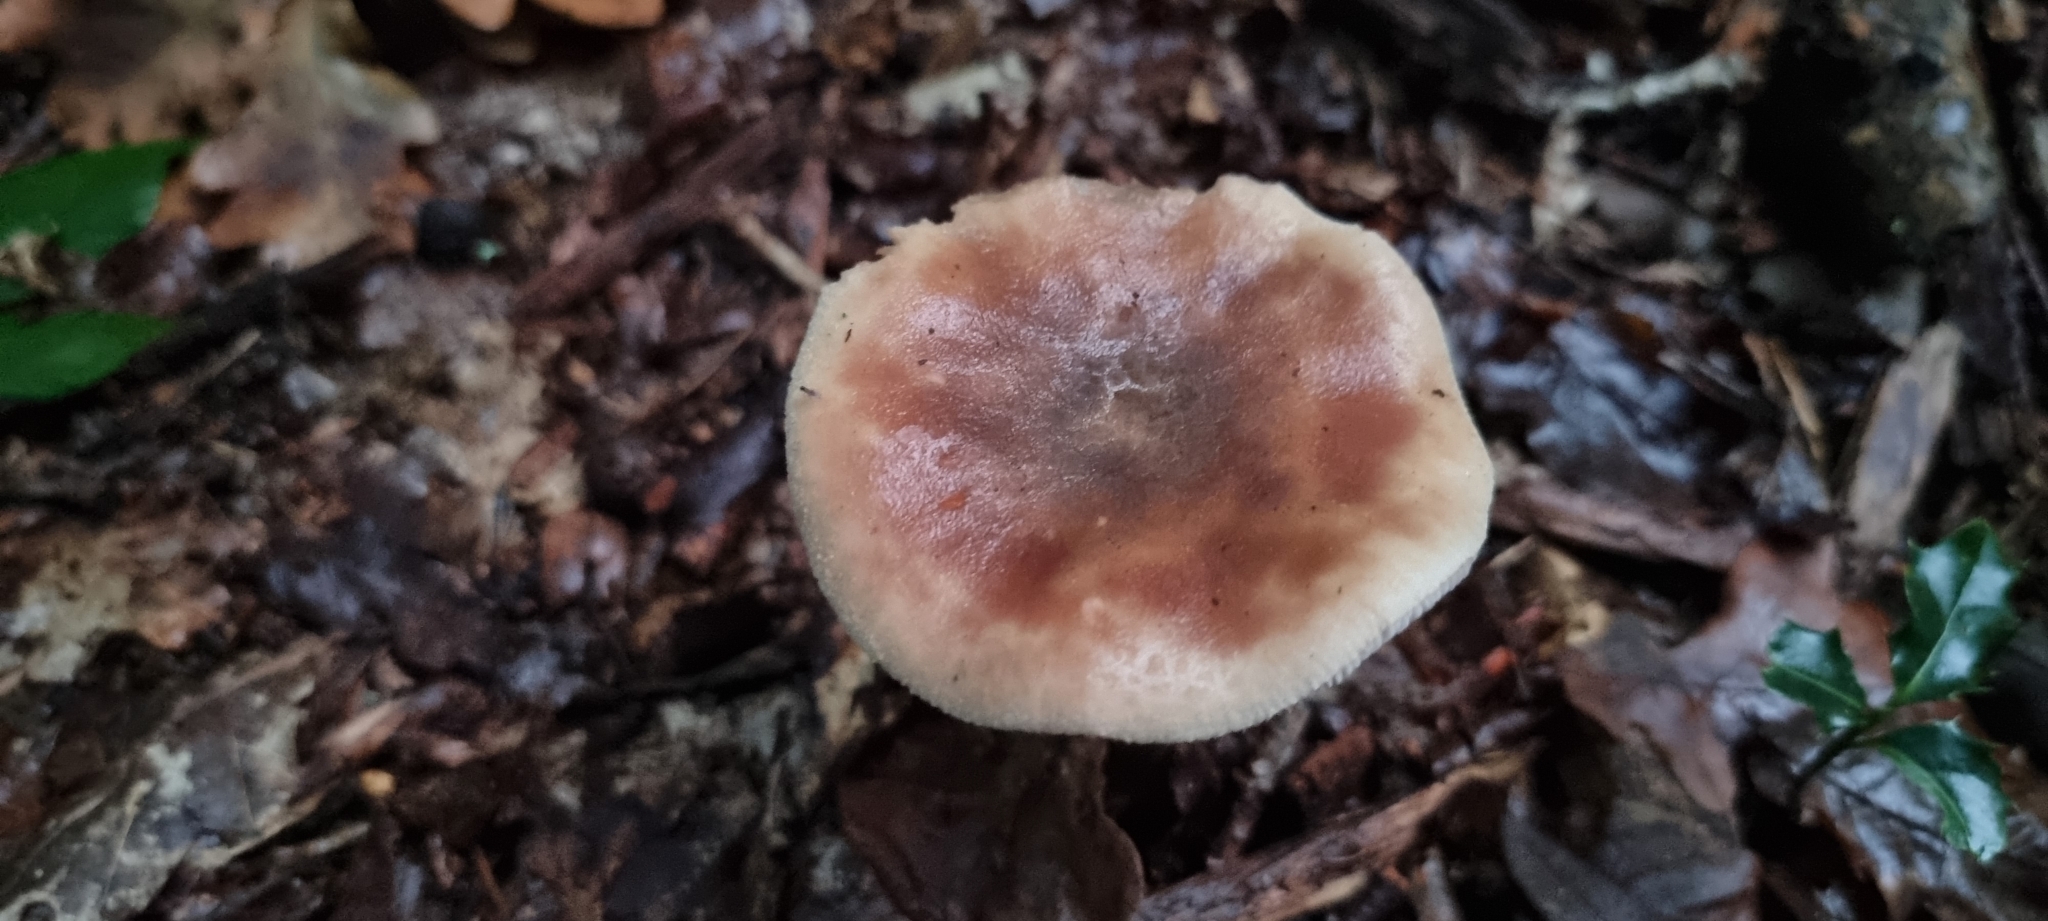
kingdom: Fungi
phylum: Basidiomycota
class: Agaricomycetes
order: Agaricales
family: Amanitaceae
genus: Amanita
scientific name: Amanita rubescens
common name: Blusher
